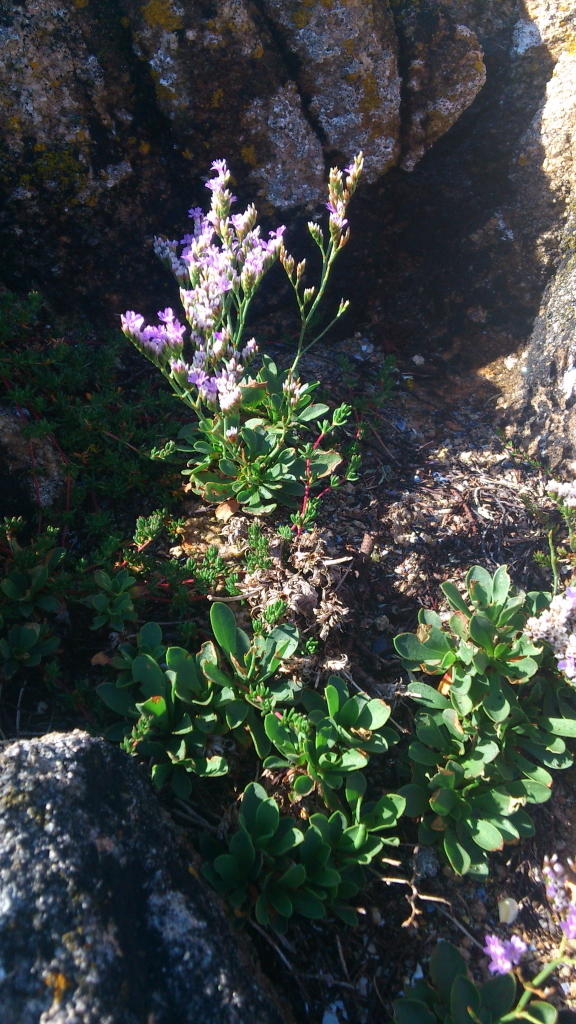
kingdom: Plantae
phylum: Tracheophyta
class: Magnoliopsida
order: Caryophyllales
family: Plumbaginaceae
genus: Limonium
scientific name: Limonium vulgare
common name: Common sea-lavender
